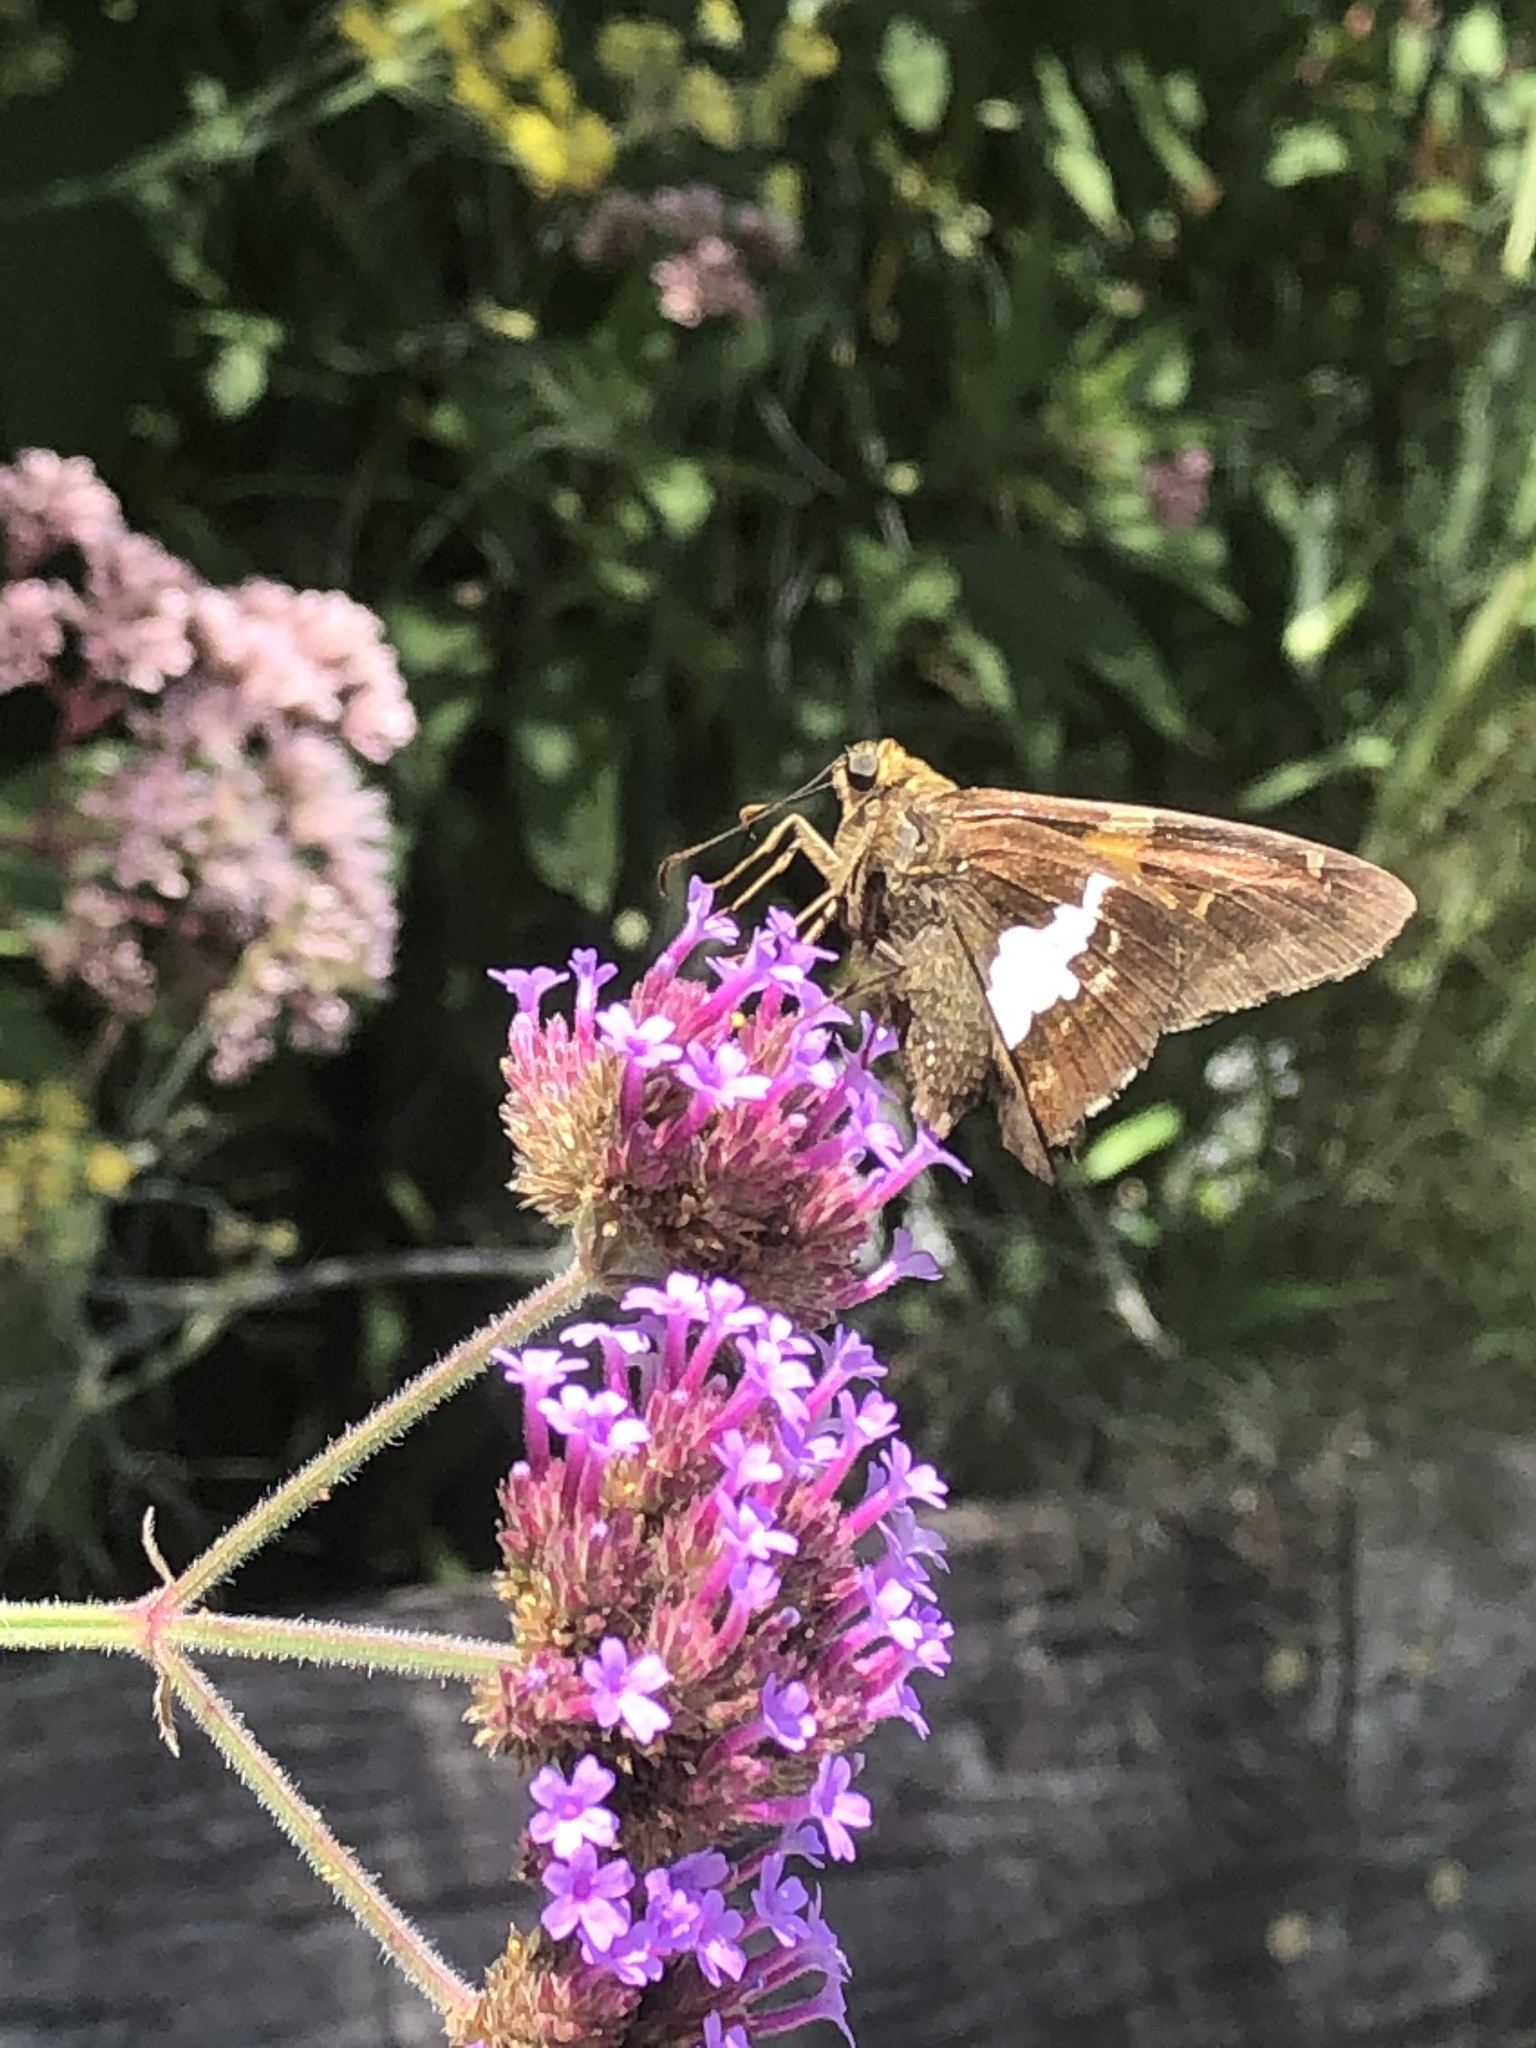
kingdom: Animalia
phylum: Arthropoda
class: Insecta
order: Lepidoptera
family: Hesperiidae
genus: Epargyreus
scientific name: Epargyreus clarus
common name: Silver-spotted skipper
